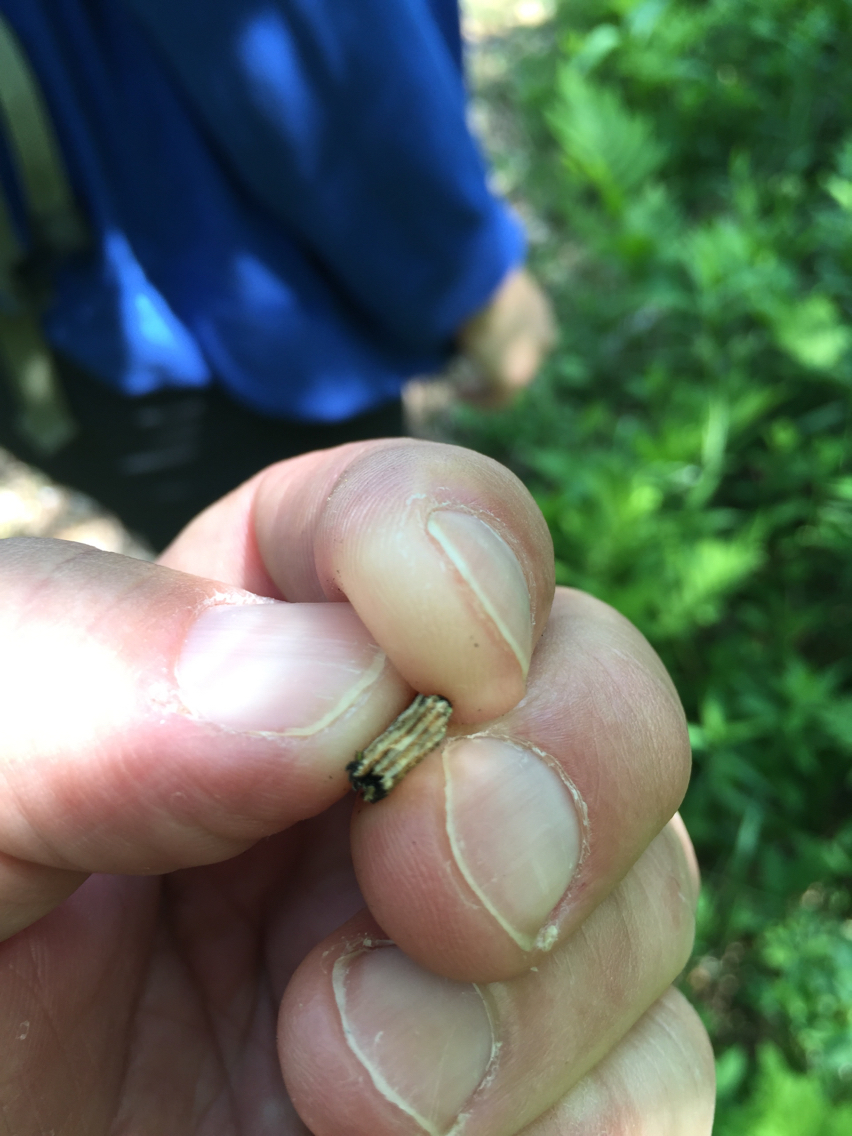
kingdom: Plantae
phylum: Tracheophyta
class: Magnoliopsida
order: Rosales
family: Ulmaceae
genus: Ulmus
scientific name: Ulmus americana
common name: American elm
